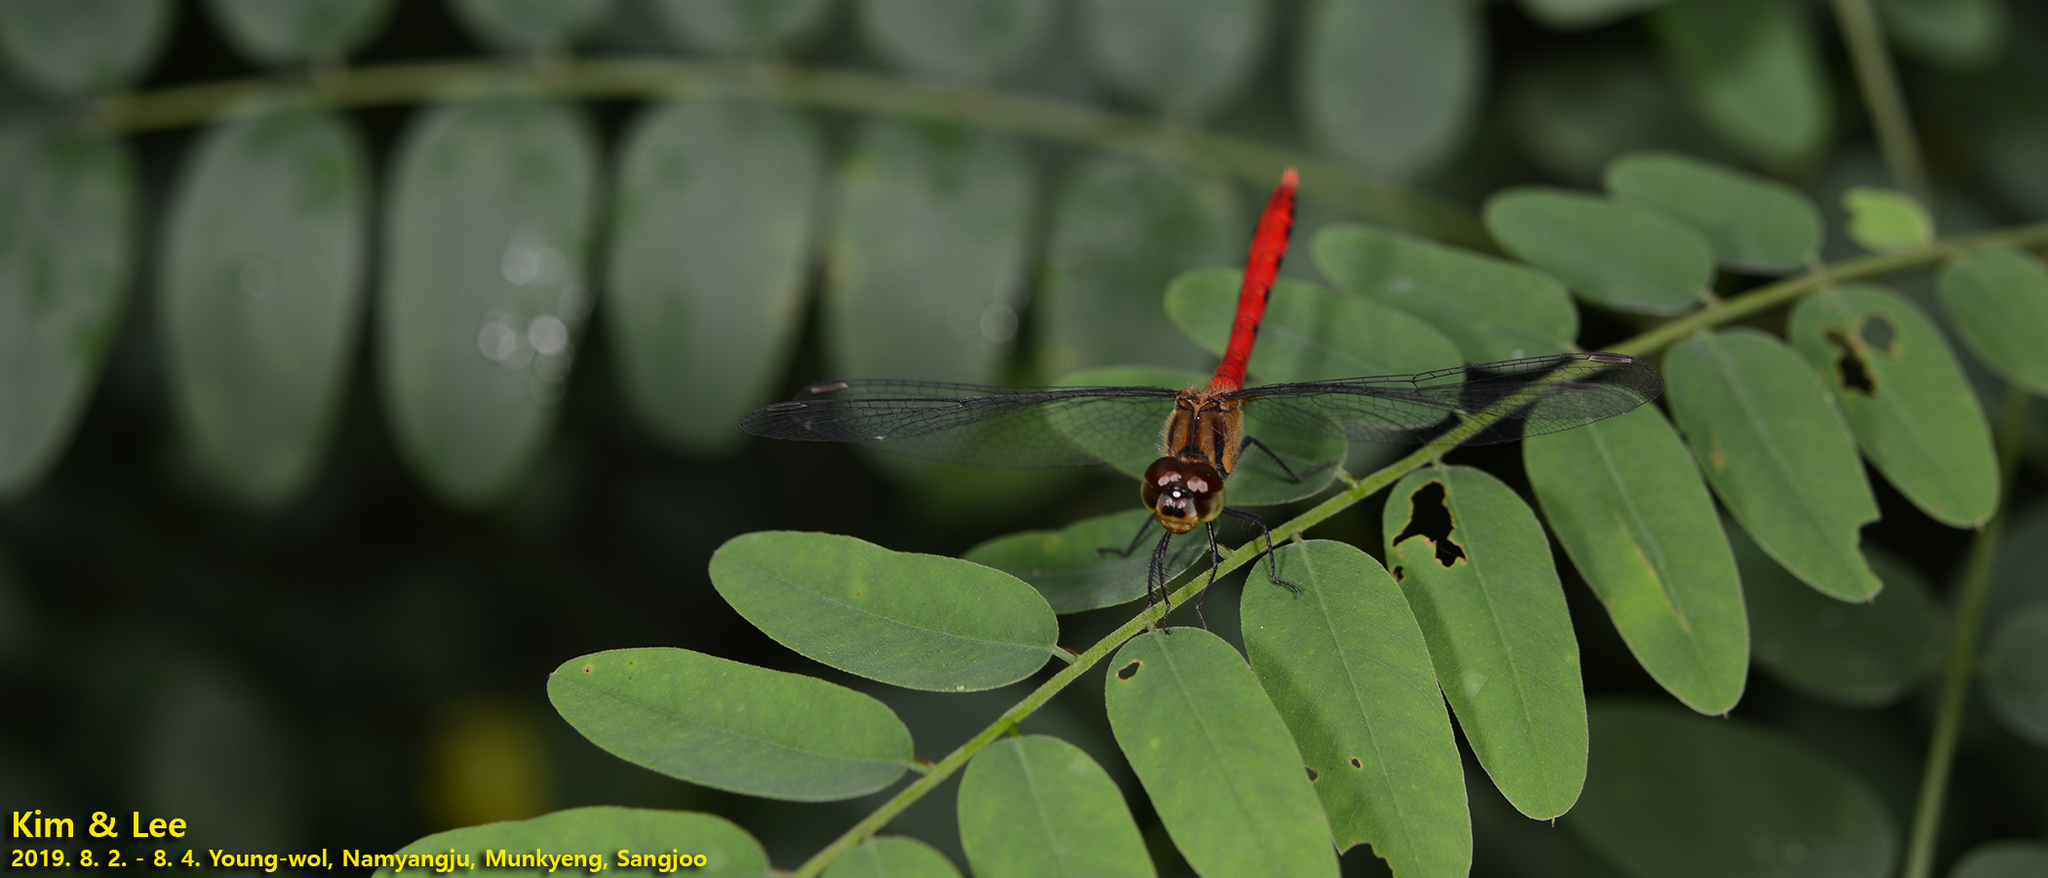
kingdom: Animalia
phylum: Arthropoda
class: Insecta
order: Odonata
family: Libellulidae
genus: Sympetrum
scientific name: Sympetrum eroticum
